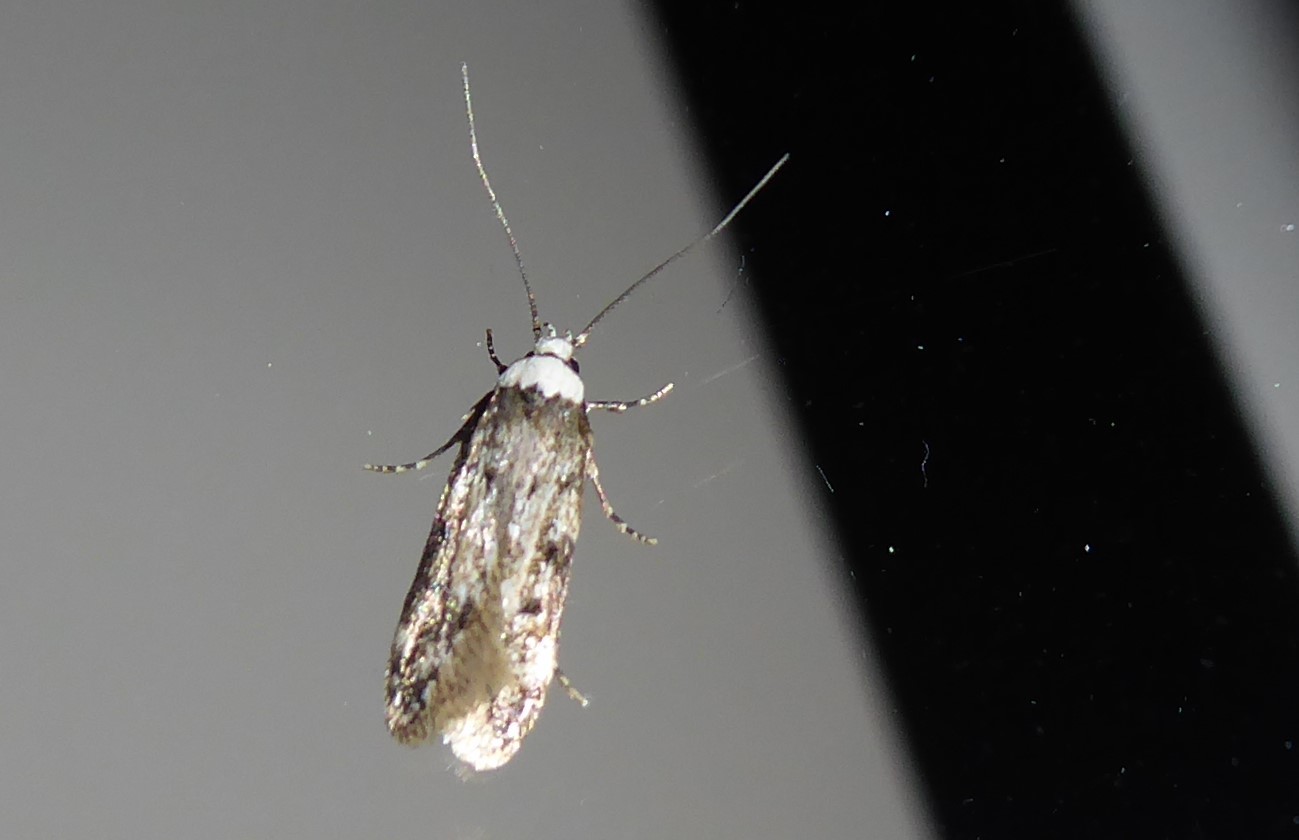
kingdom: Animalia
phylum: Arthropoda
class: Insecta
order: Lepidoptera
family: Oecophoridae
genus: Endrosis
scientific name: Endrosis sarcitrella
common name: White-shouldered house moth
